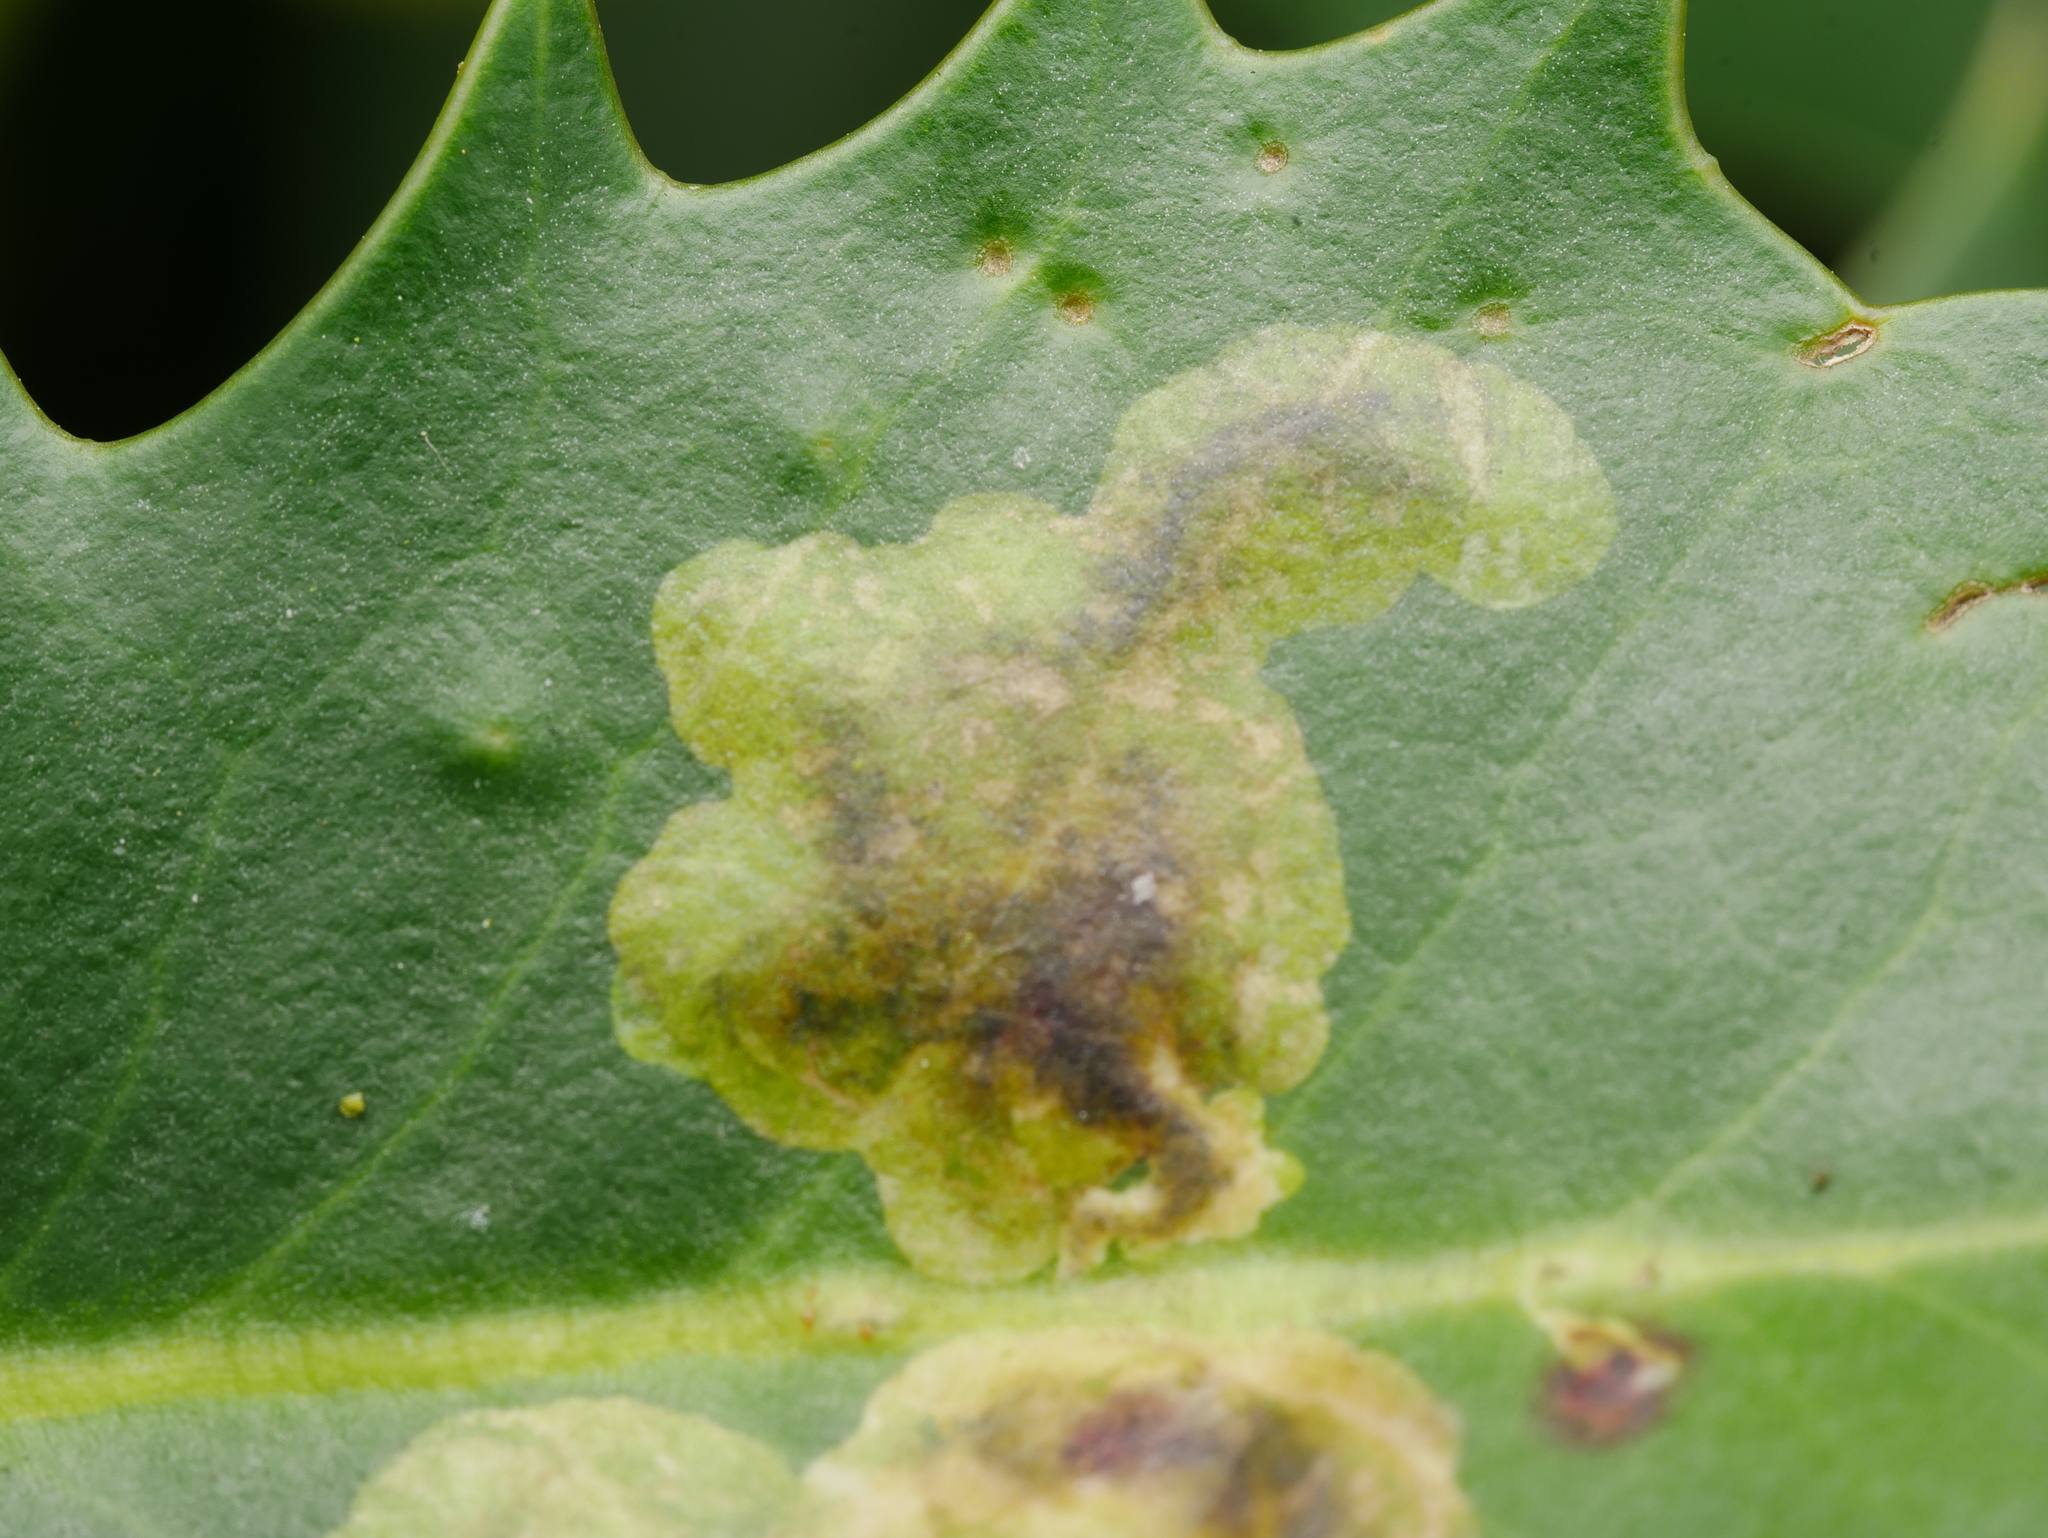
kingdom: Animalia
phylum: Arthropoda
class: Insecta
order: Diptera
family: Agromyzidae
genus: Phytomyza
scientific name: Phytomyza ilicis
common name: Holly leafminer
